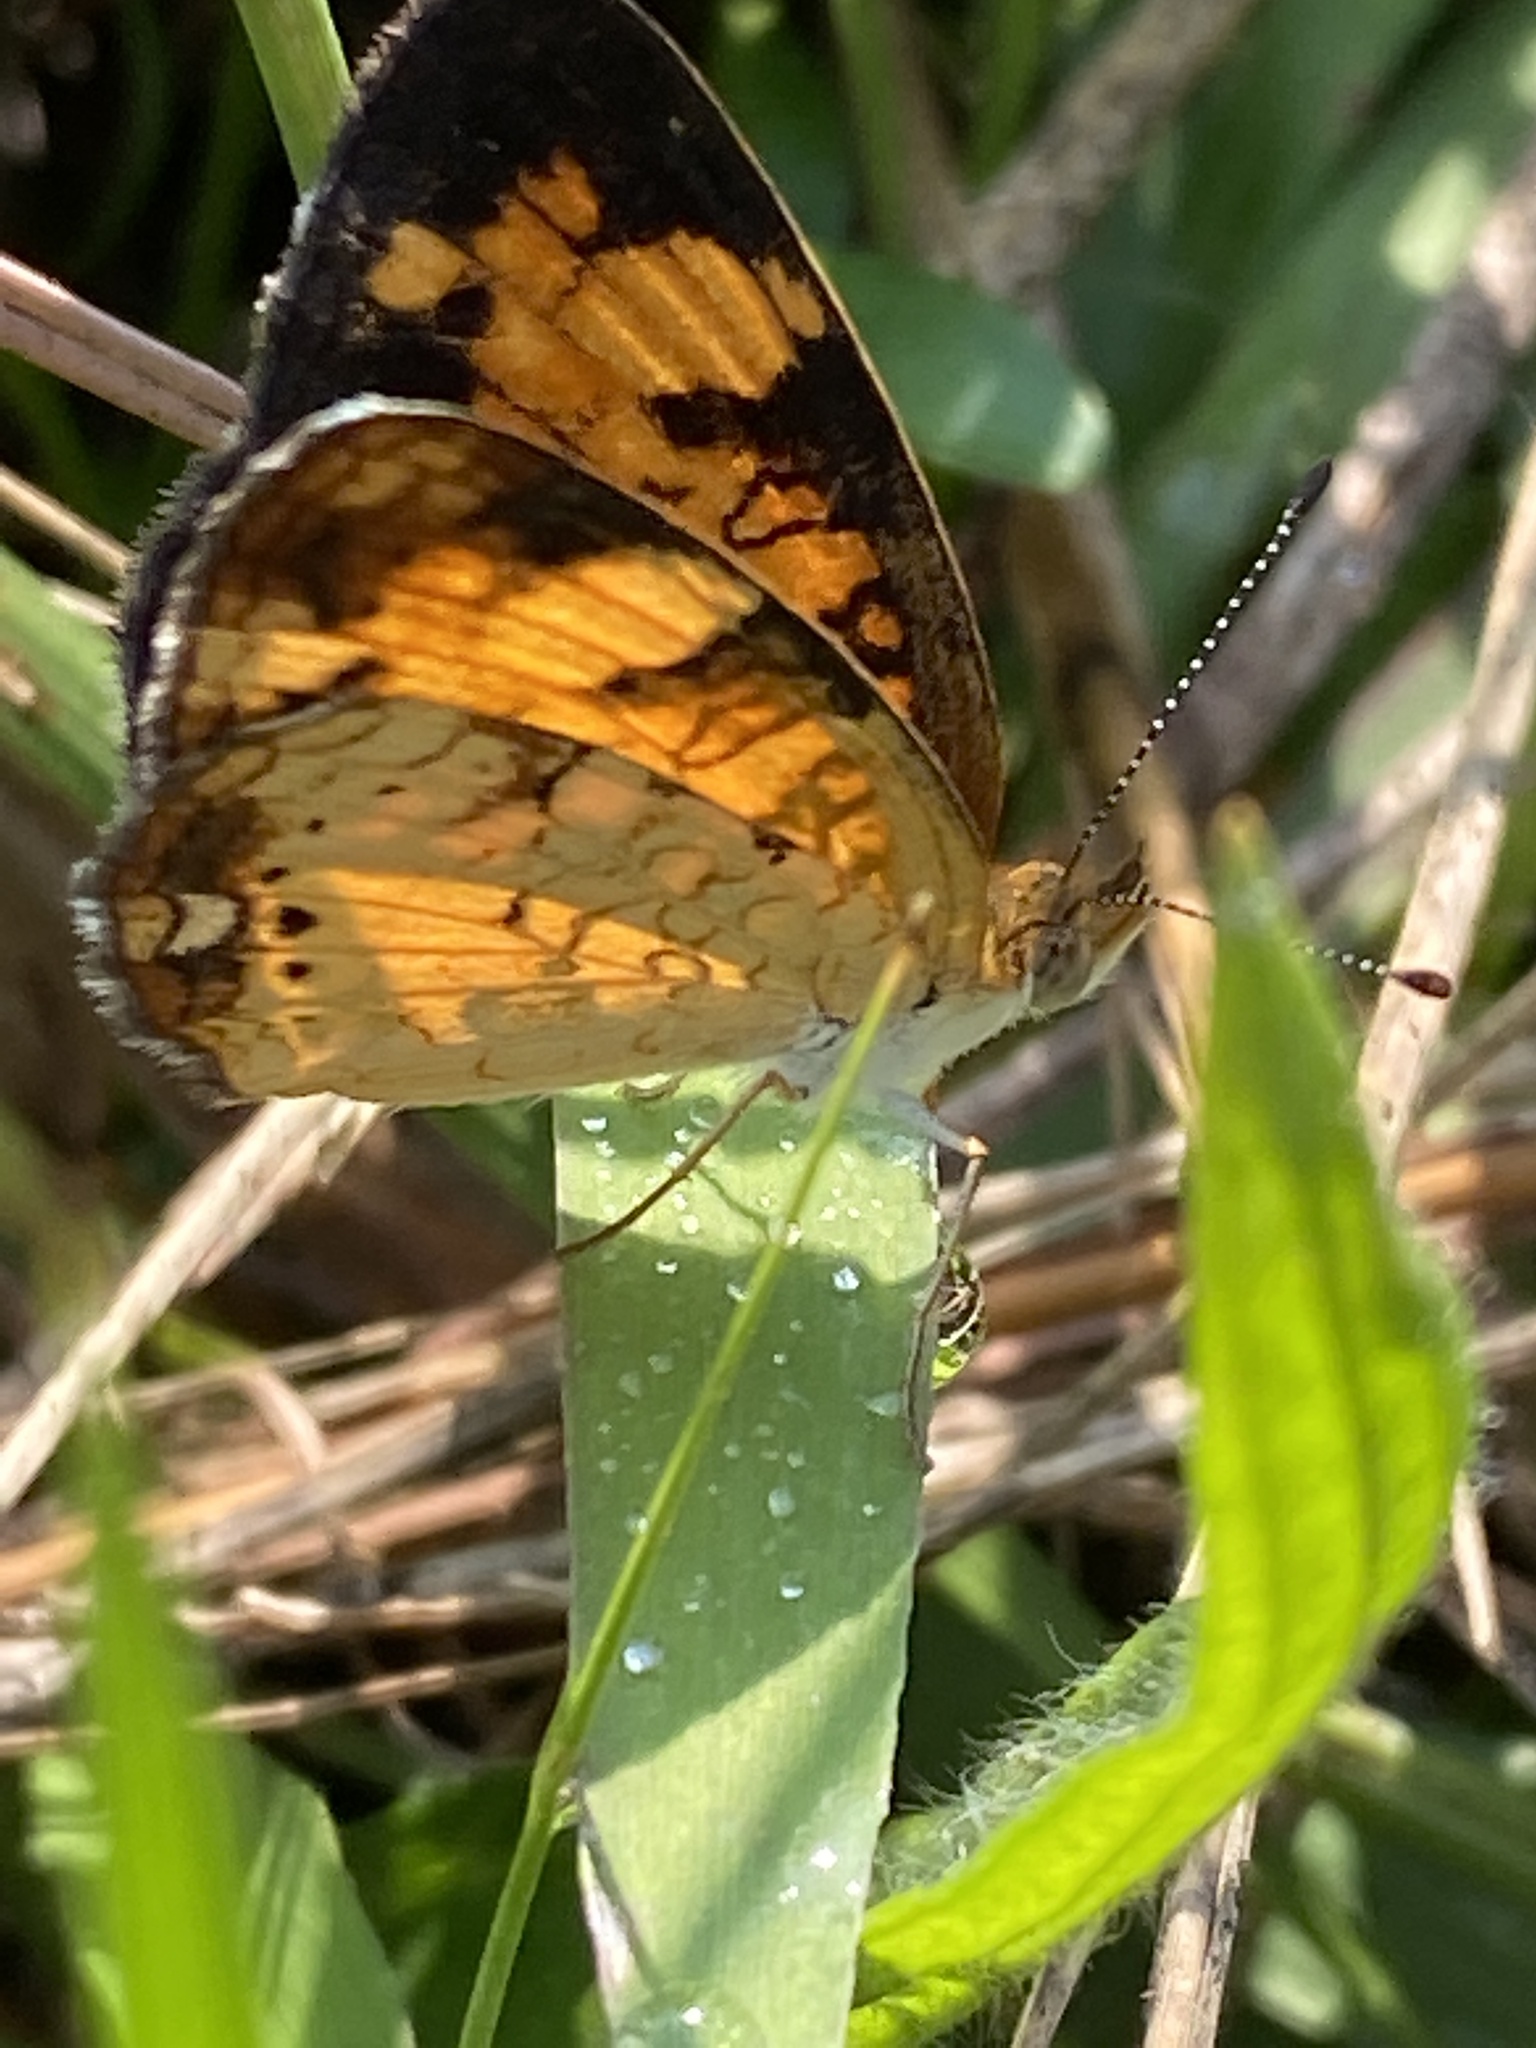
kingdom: Animalia
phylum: Arthropoda
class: Insecta
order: Lepidoptera
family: Nymphalidae
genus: Phyciodes
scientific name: Phyciodes tharos
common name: Pearl crescent
